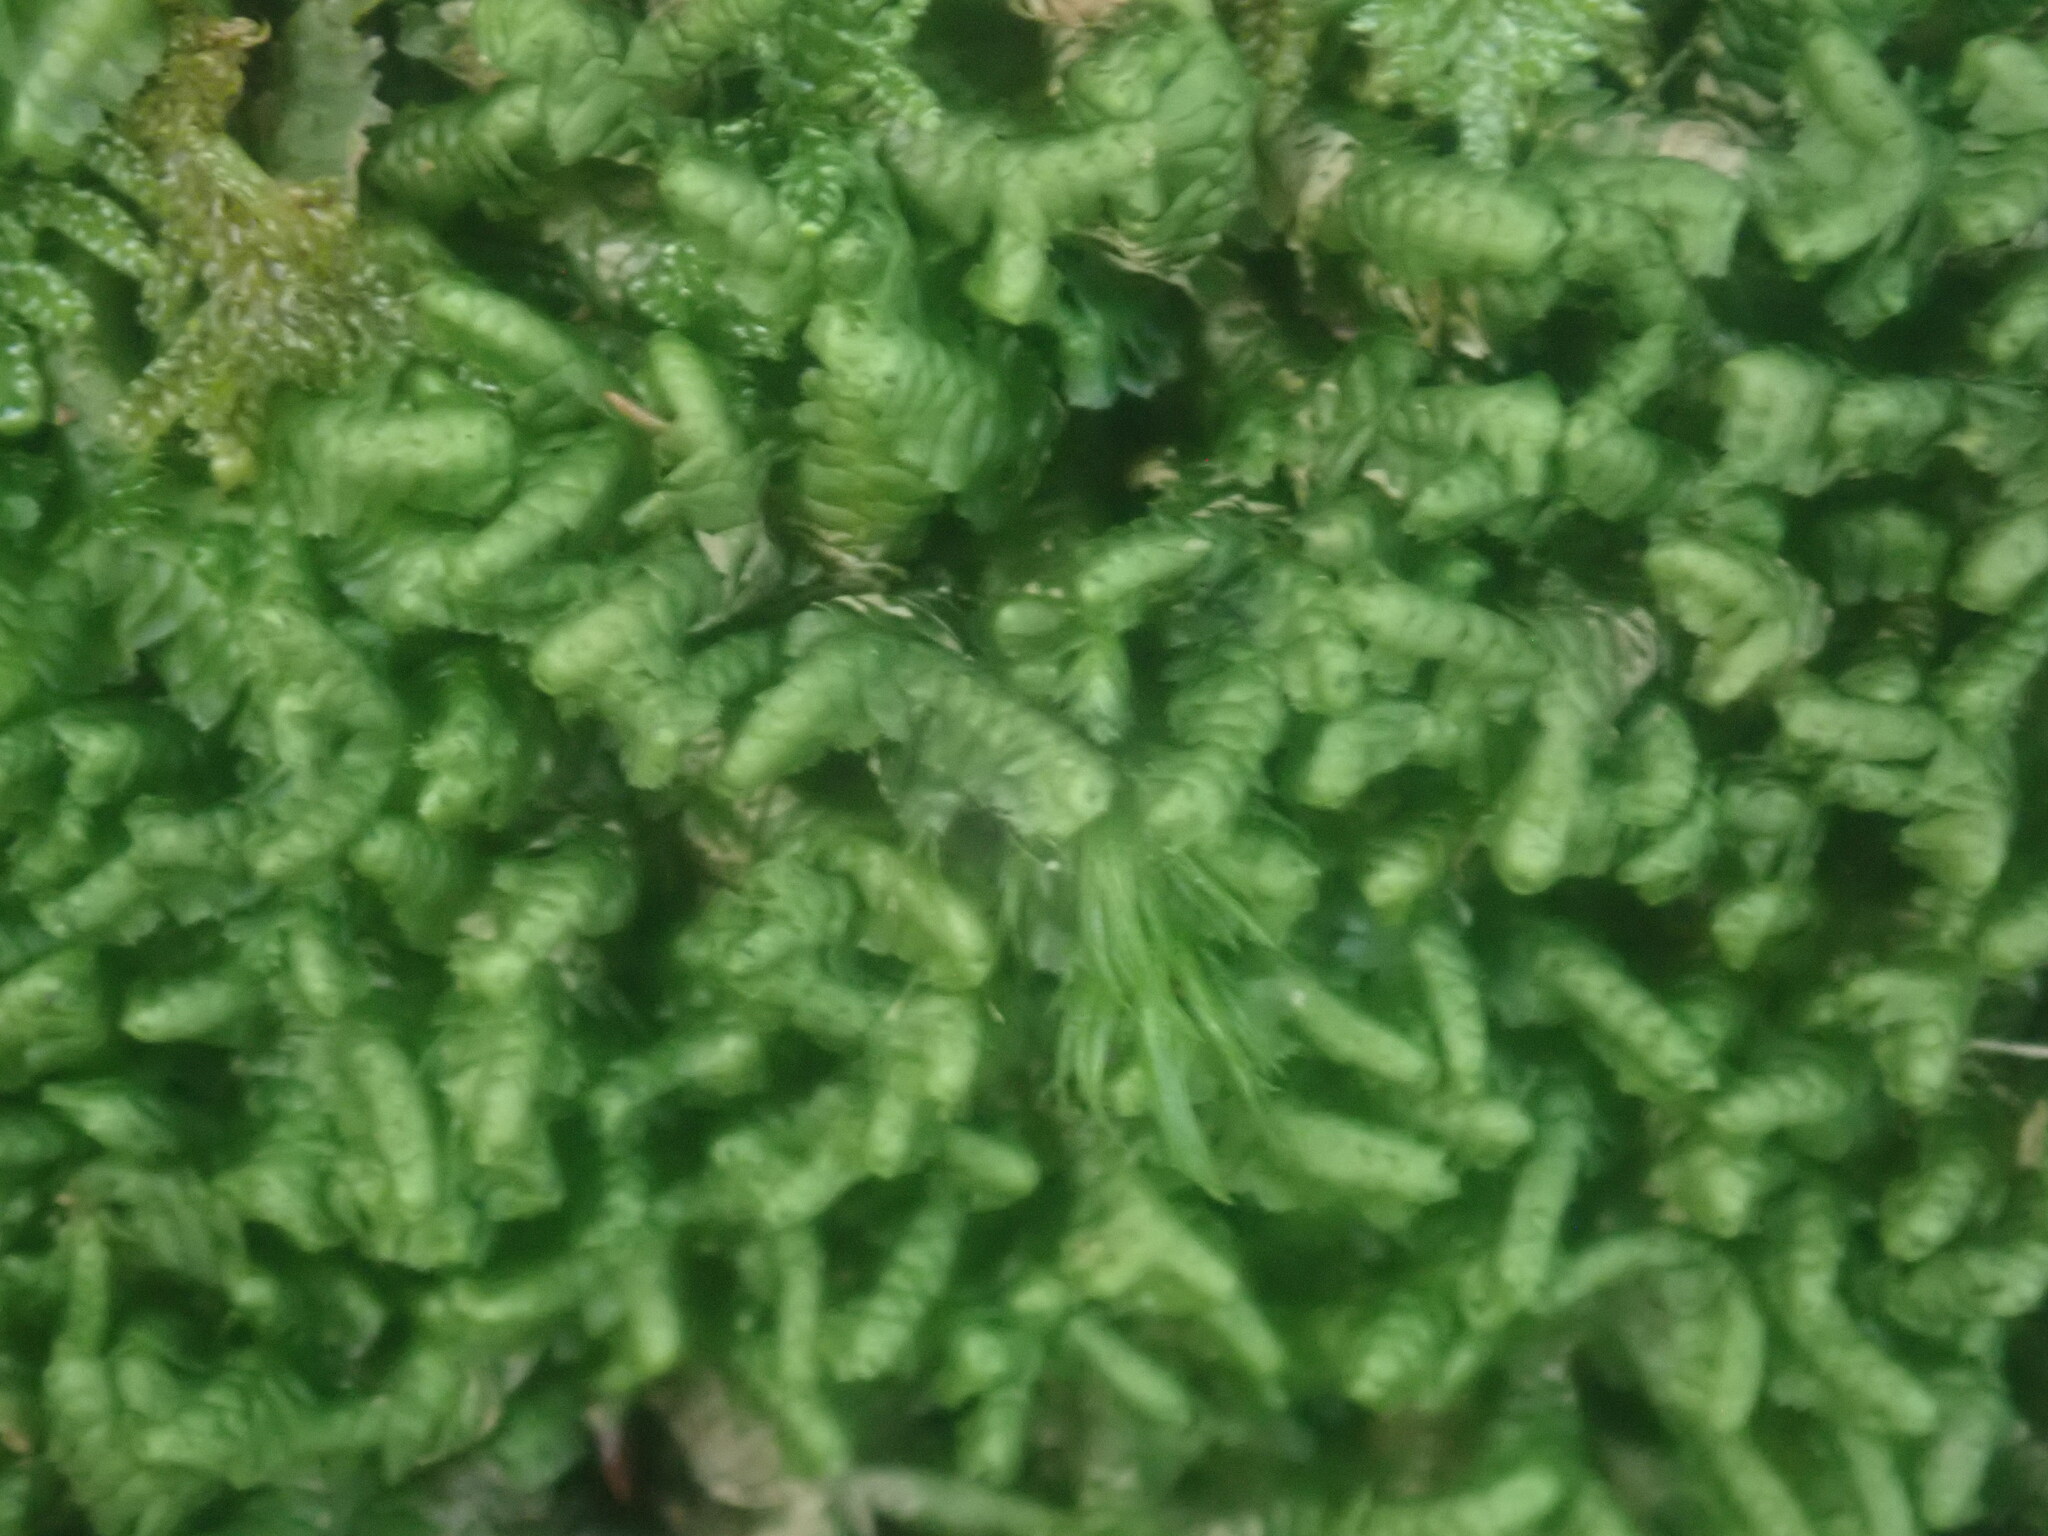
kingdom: Plantae
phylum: Marchantiophyta
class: Jungermanniopsida
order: Jungermanniales
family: Lepidoziaceae
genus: Bazzania
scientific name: Bazzania trilobata
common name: Three-lobed whipwort
